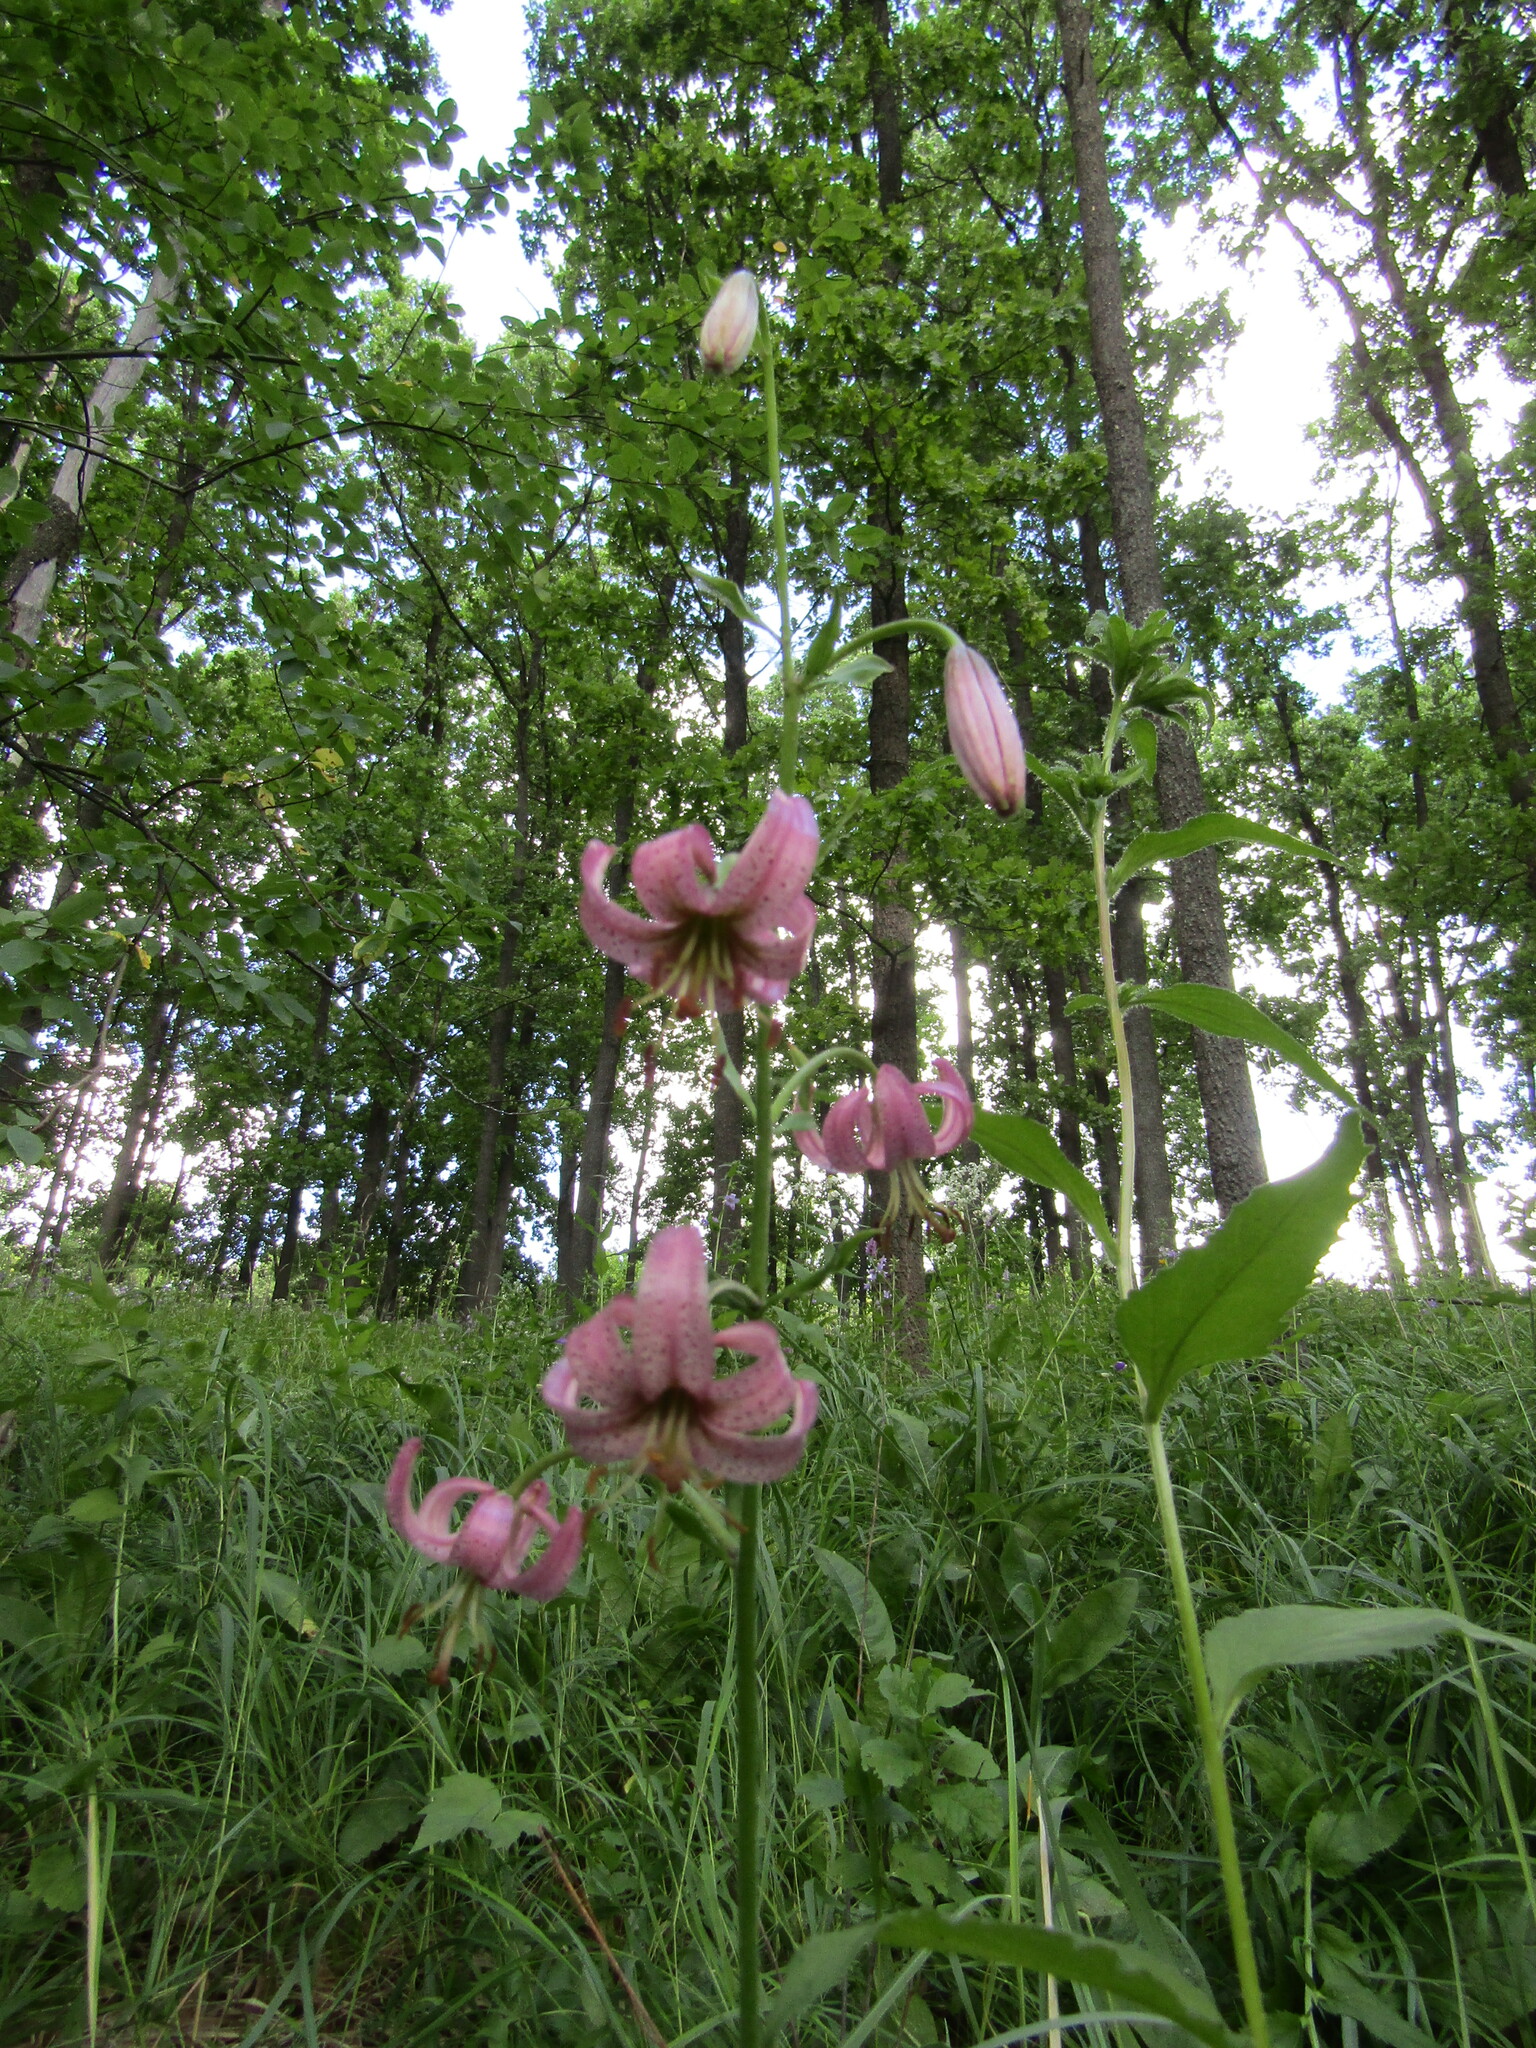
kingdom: Plantae
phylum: Tracheophyta
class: Liliopsida
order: Liliales
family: Liliaceae
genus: Lilium
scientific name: Lilium martagon
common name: Martagon lily
